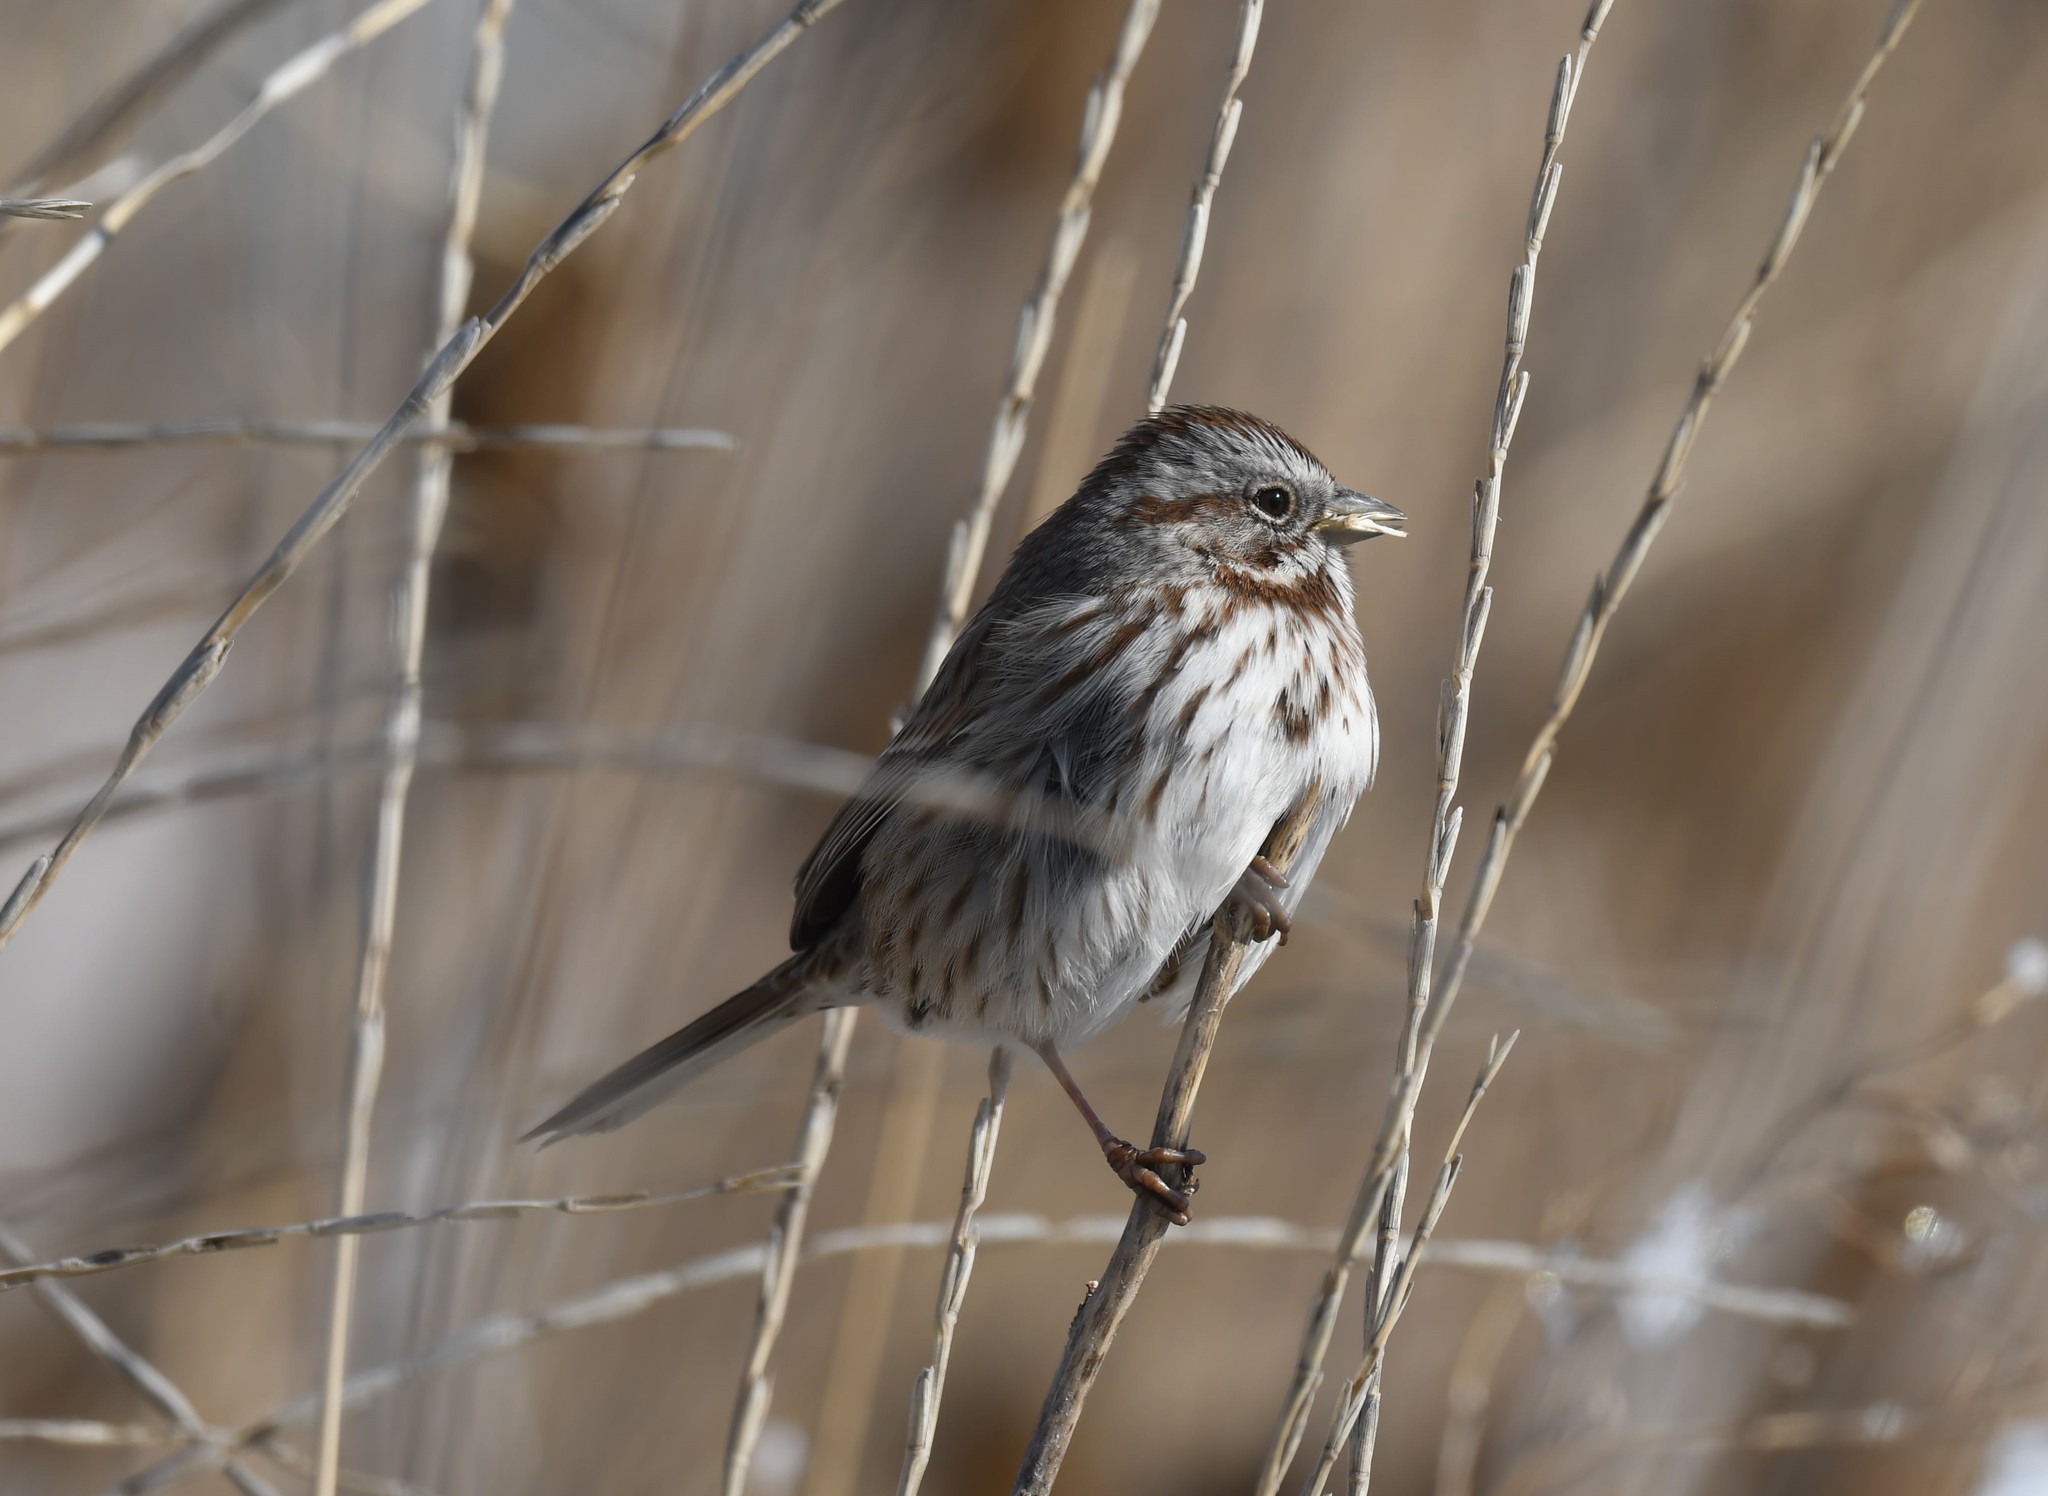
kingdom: Animalia
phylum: Chordata
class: Aves
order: Passeriformes
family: Passerellidae
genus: Melospiza
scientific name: Melospiza melodia
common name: Song sparrow
